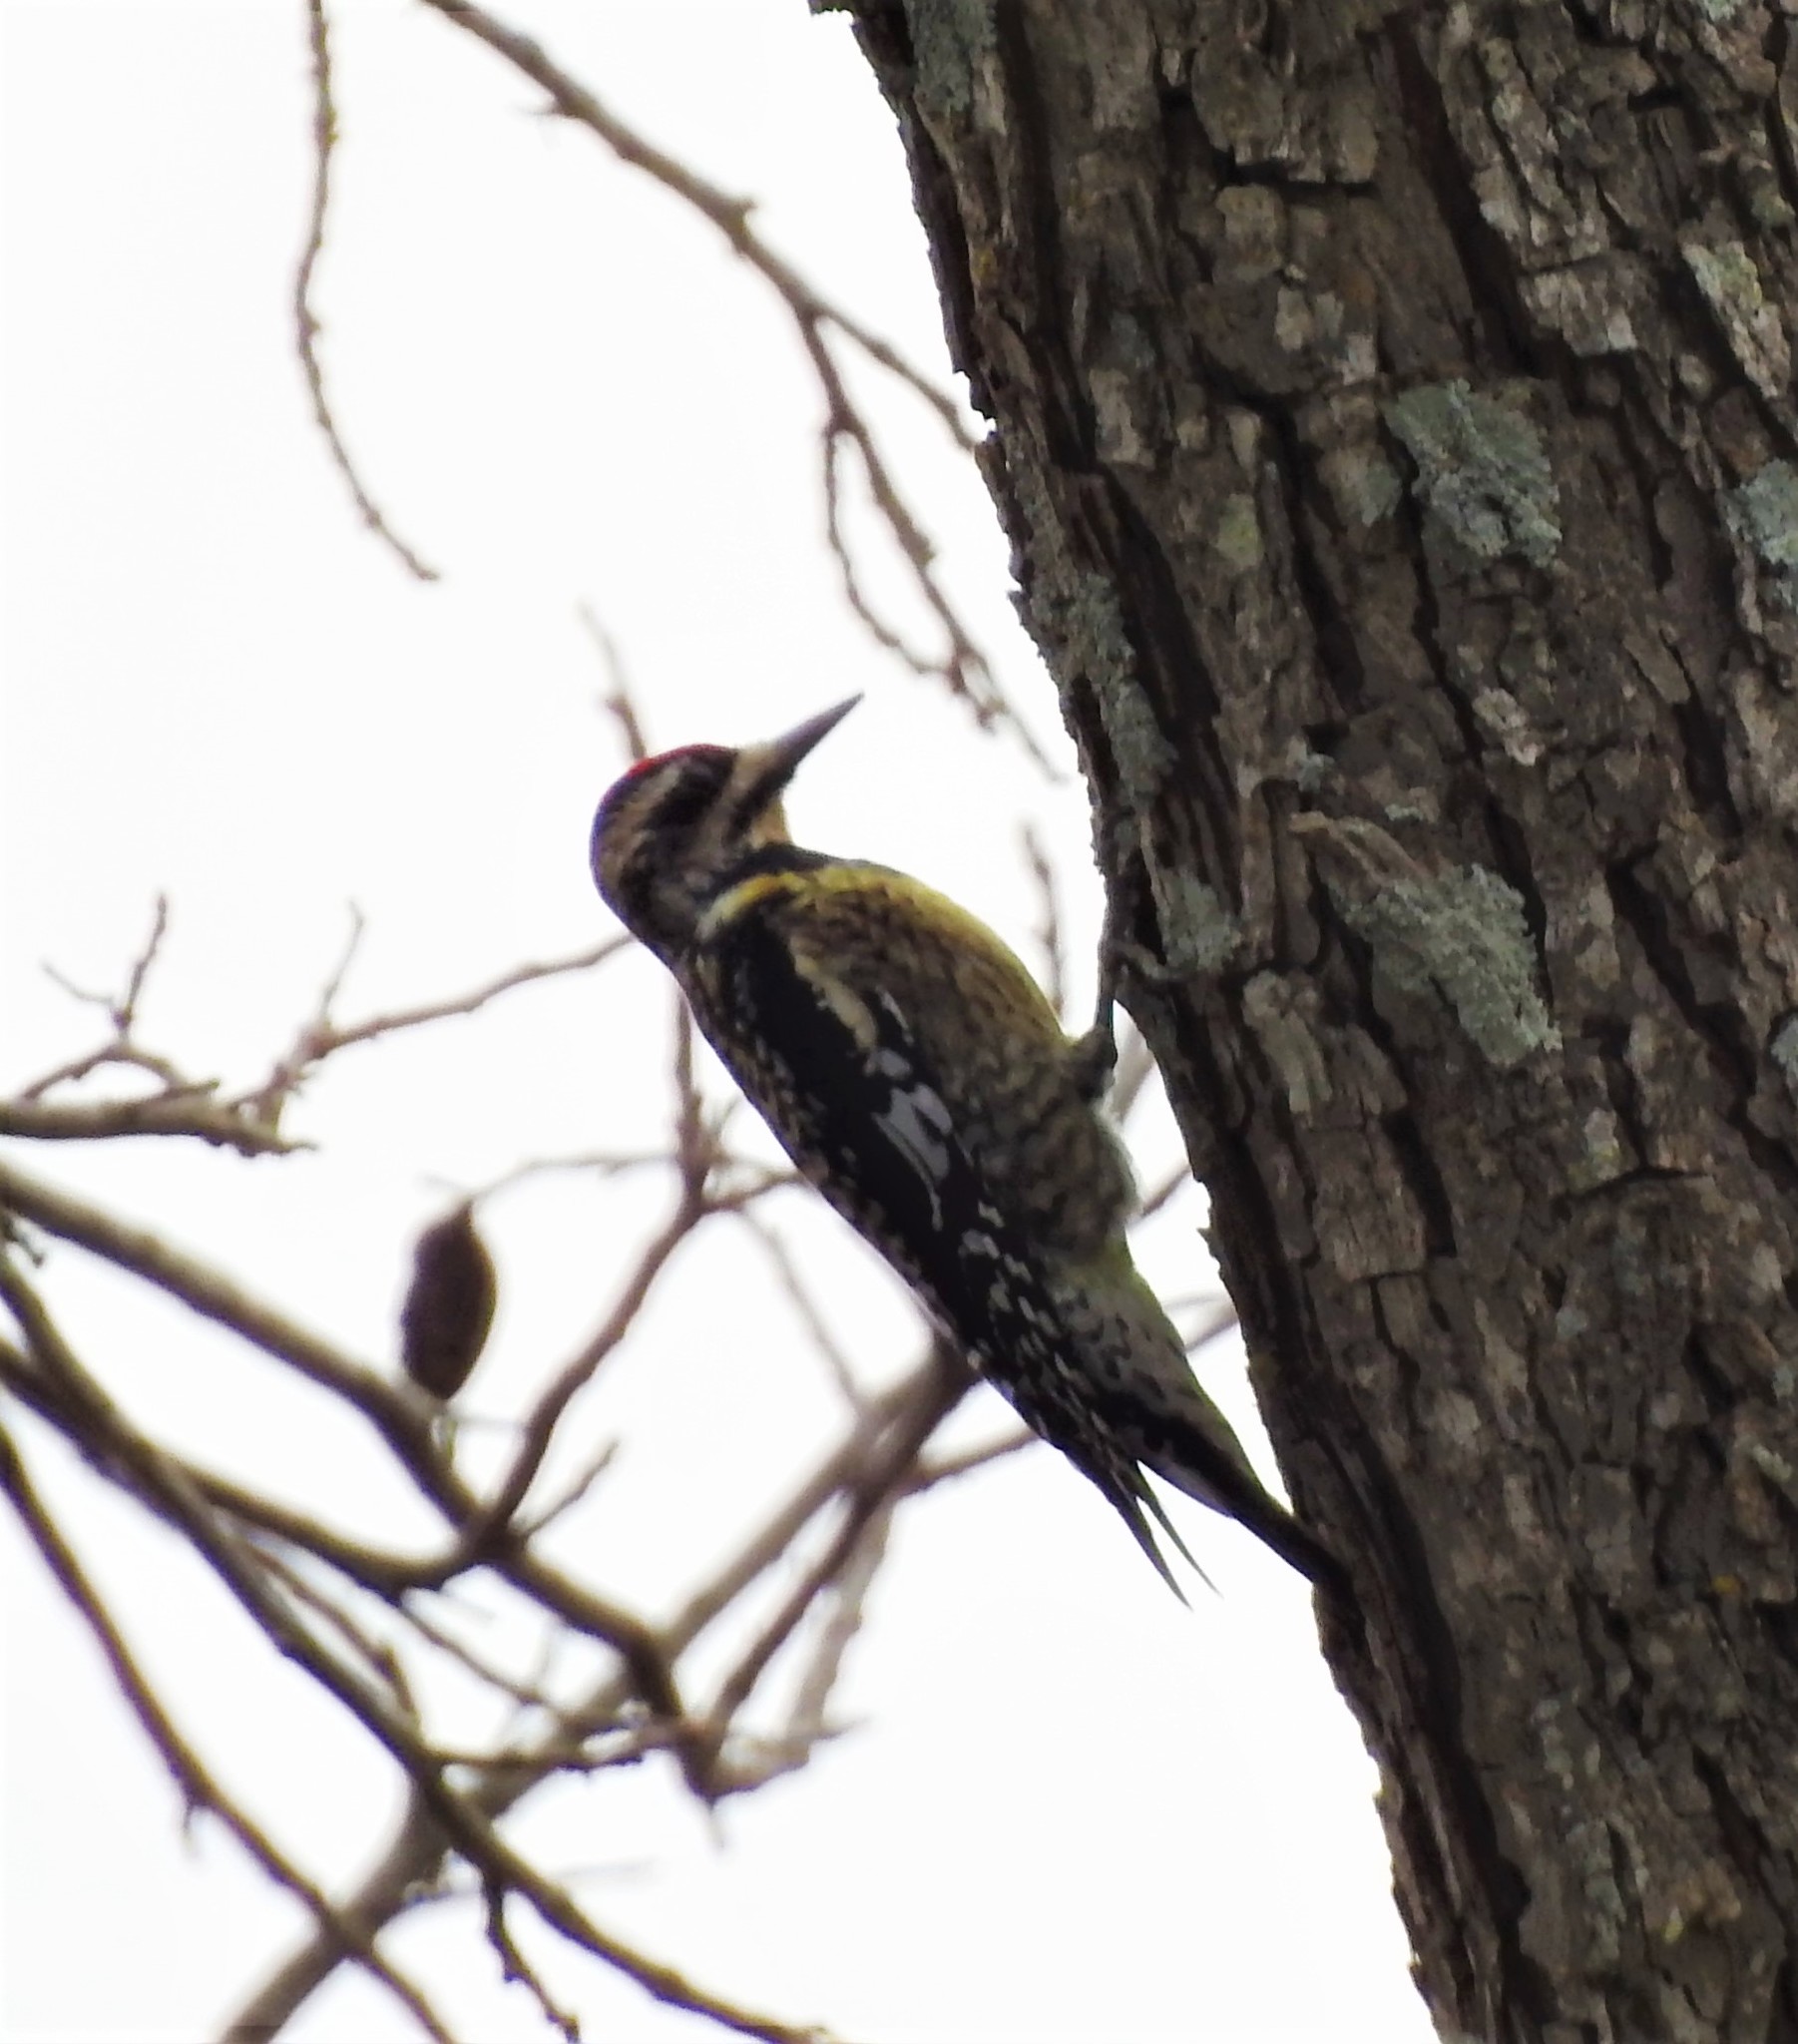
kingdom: Animalia
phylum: Chordata
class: Aves
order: Piciformes
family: Picidae
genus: Sphyrapicus
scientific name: Sphyrapicus varius
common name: Yellow-bellied sapsucker
